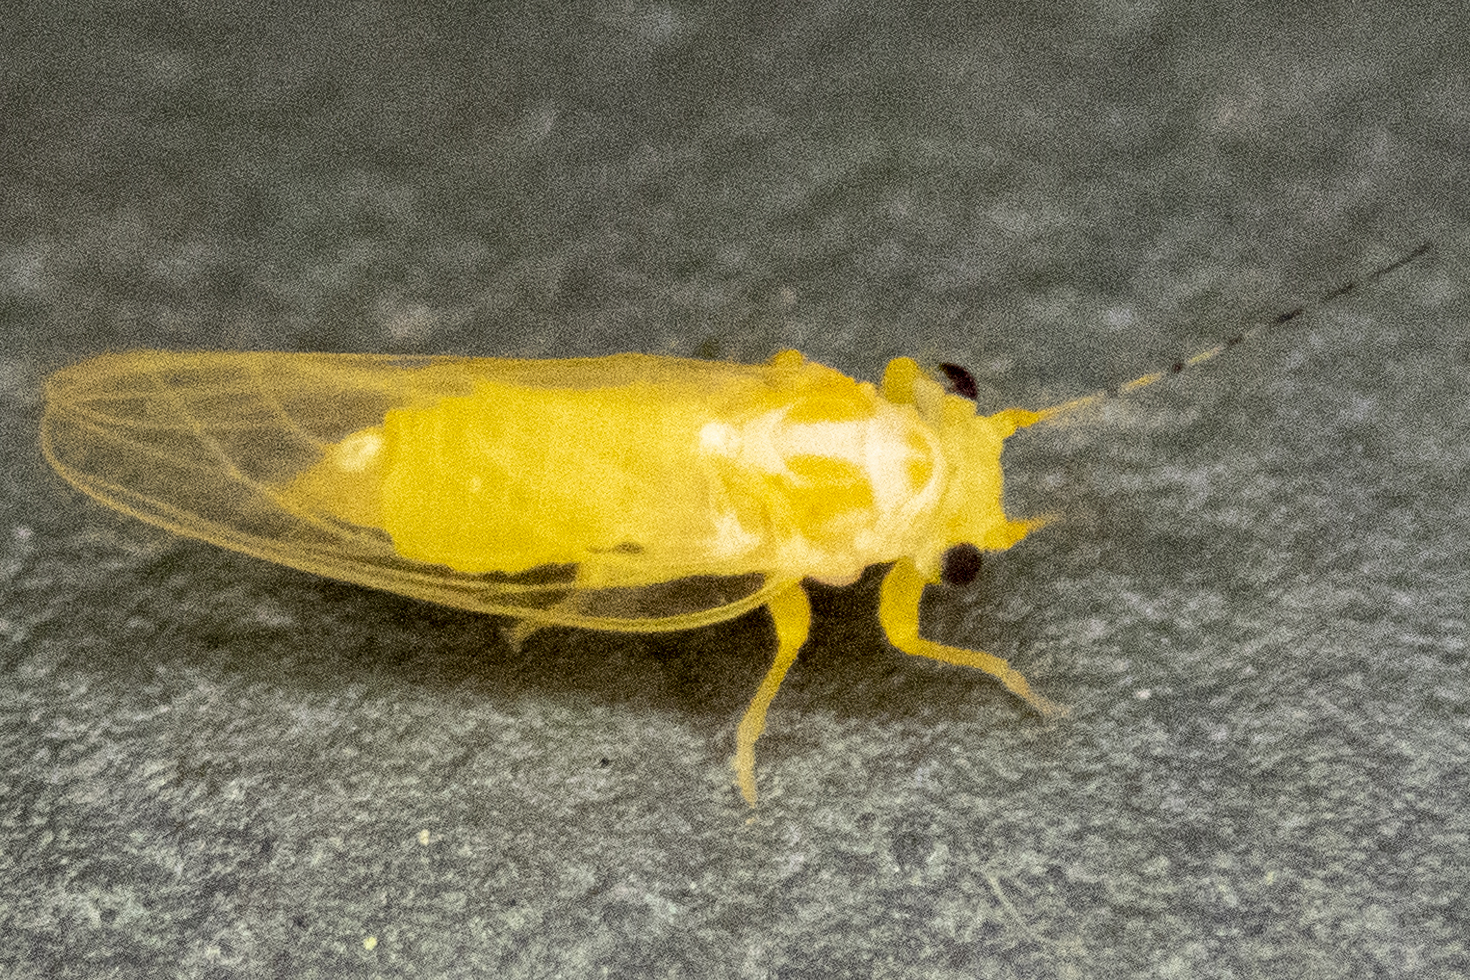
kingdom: Animalia
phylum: Arthropoda
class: Insecta
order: Hemiptera
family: Psyllidae
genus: Cacopsylla
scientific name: Cacopsylla annulata
